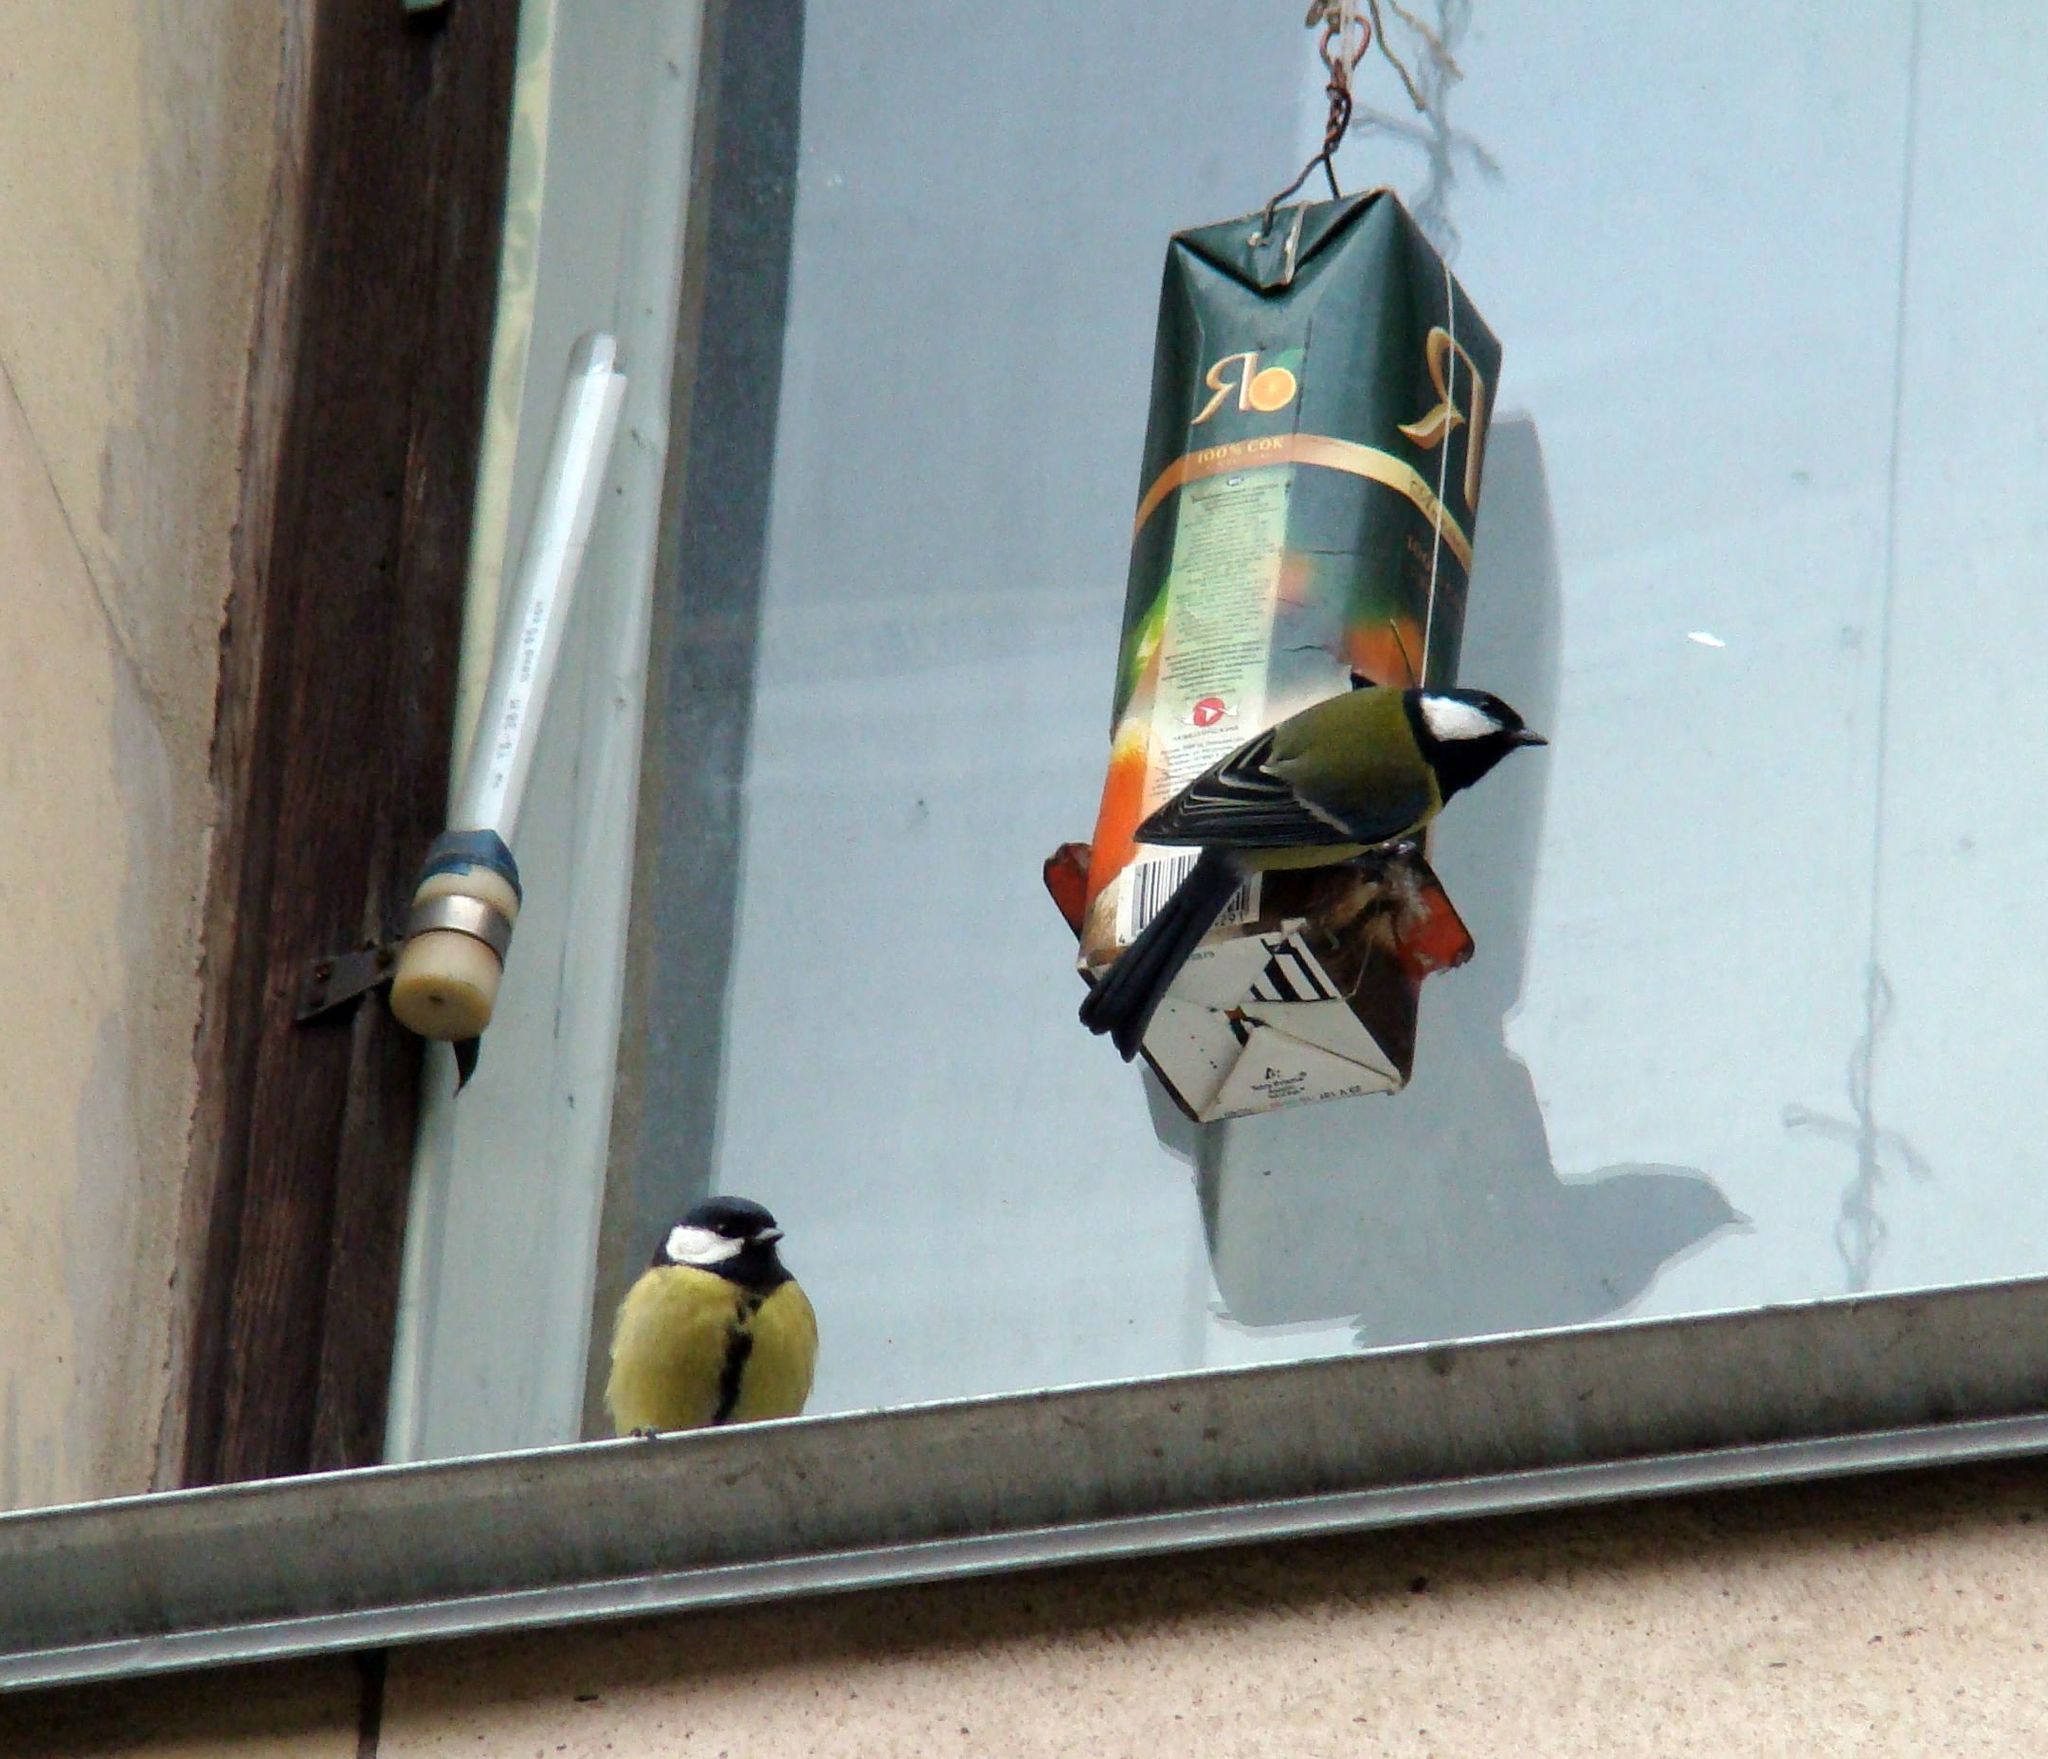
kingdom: Animalia
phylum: Chordata
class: Aves
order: Passeriformes
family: Paridae
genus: Parus
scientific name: Parus major
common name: Great tit
